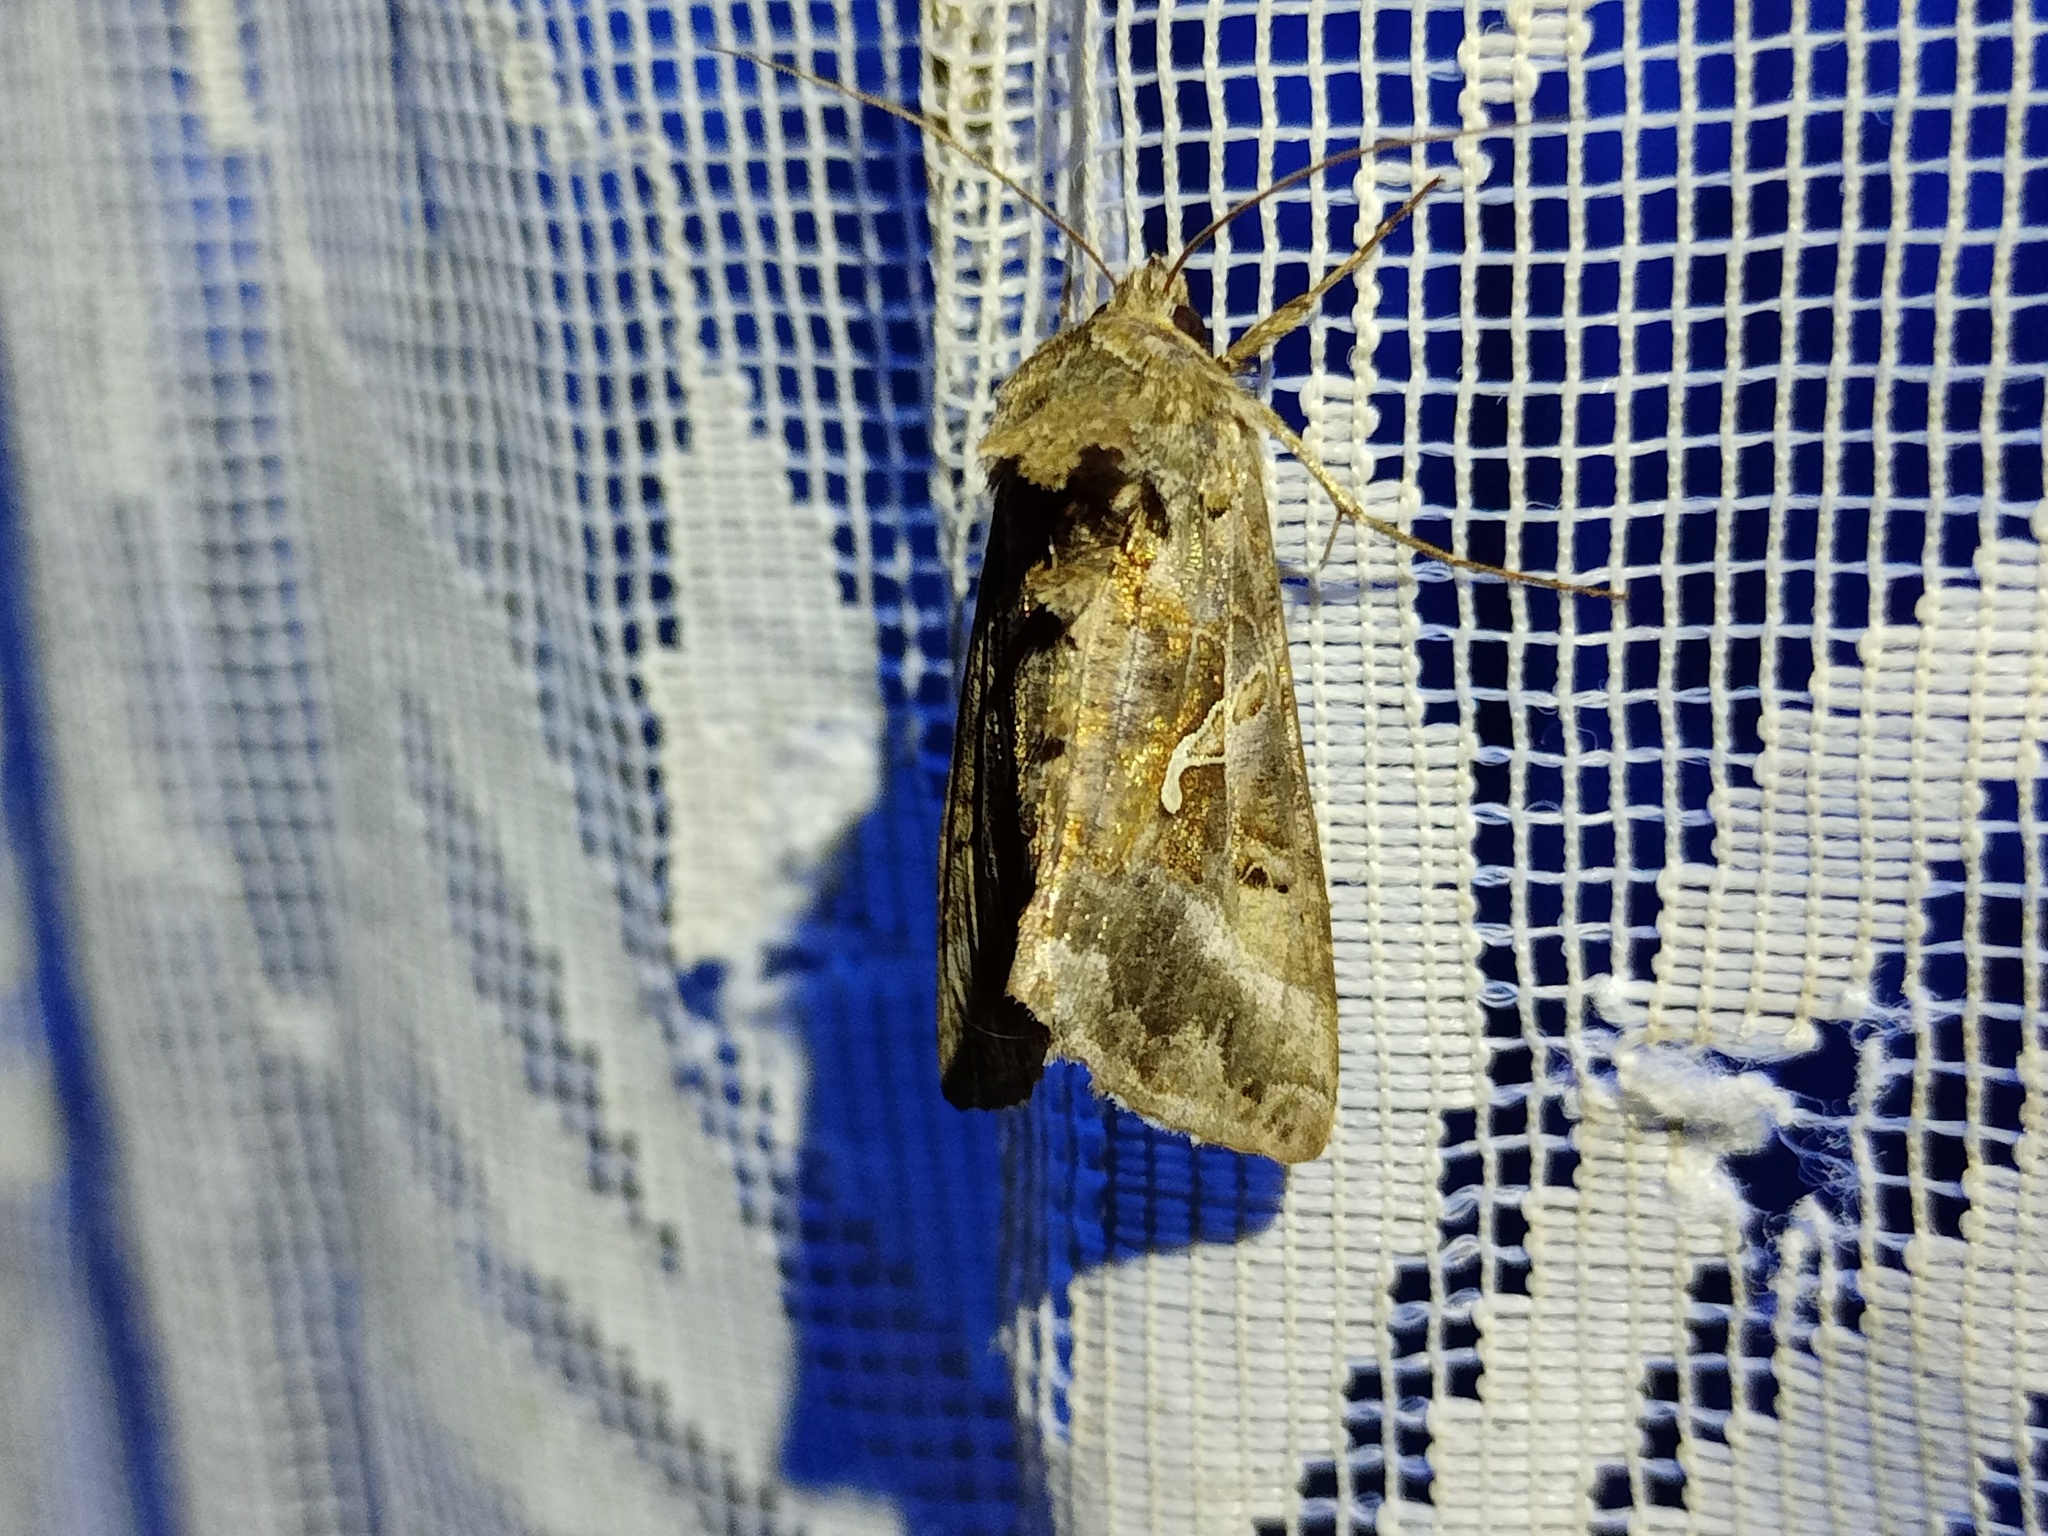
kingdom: Animalia
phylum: Arthropoda
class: Insecta
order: Lepidoptera
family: Noctuidae
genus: Autographa
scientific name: Autographa gamma
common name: Silver y
